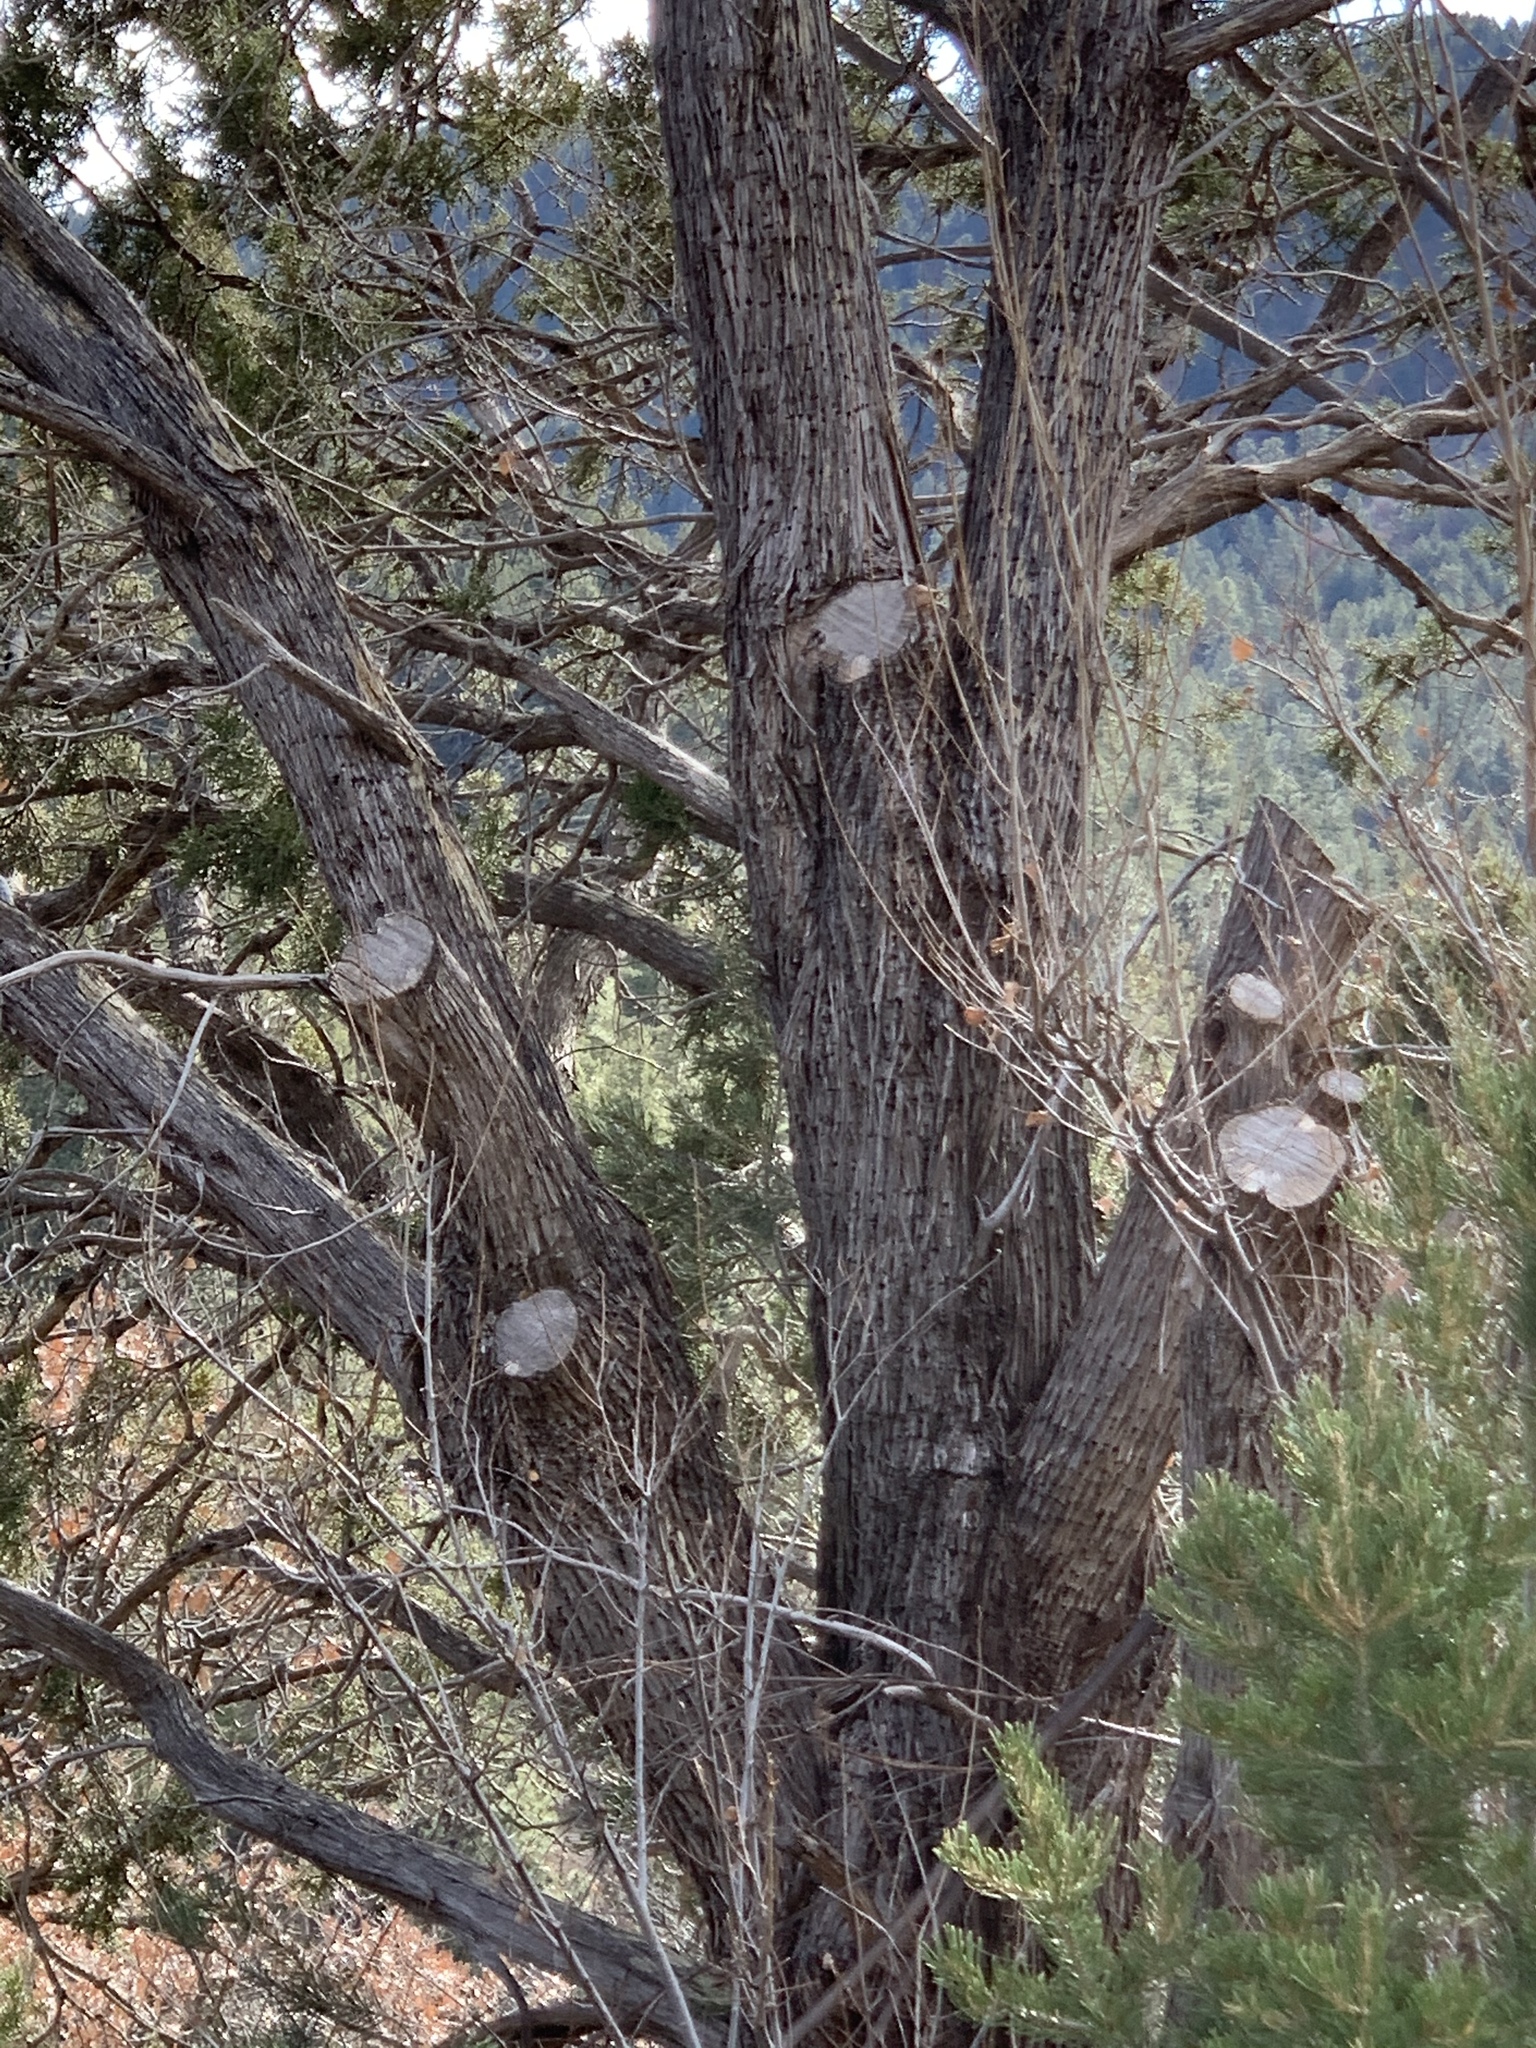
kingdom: Plantae
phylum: Tracheophyta
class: Pinopsida
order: Pinales
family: Cupressaceae
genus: Juniperus
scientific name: Juniperus deppeana
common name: Alligator juniper
